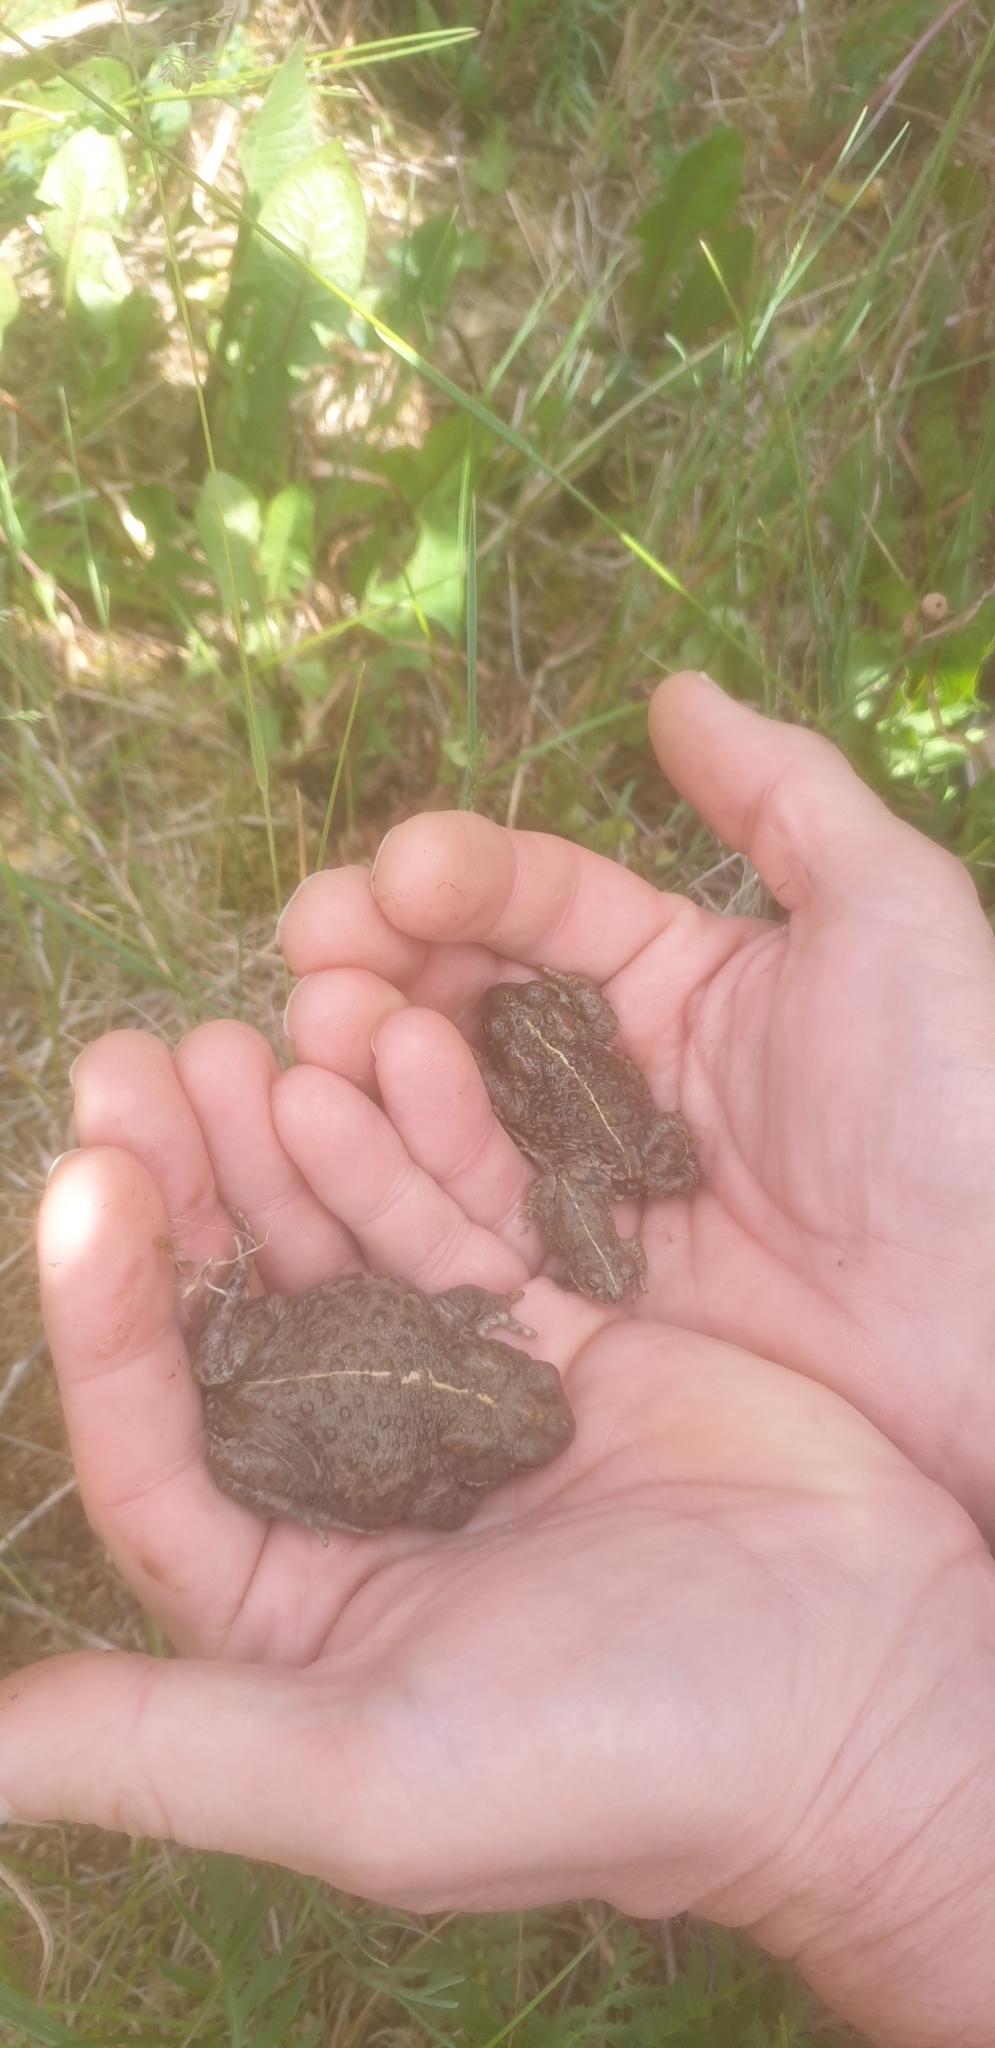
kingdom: Animalia
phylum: Chordata
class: Amphibia
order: Anura
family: Bufonidae
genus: Epidalea
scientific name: Epidalea calamita
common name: Natterjack toad
